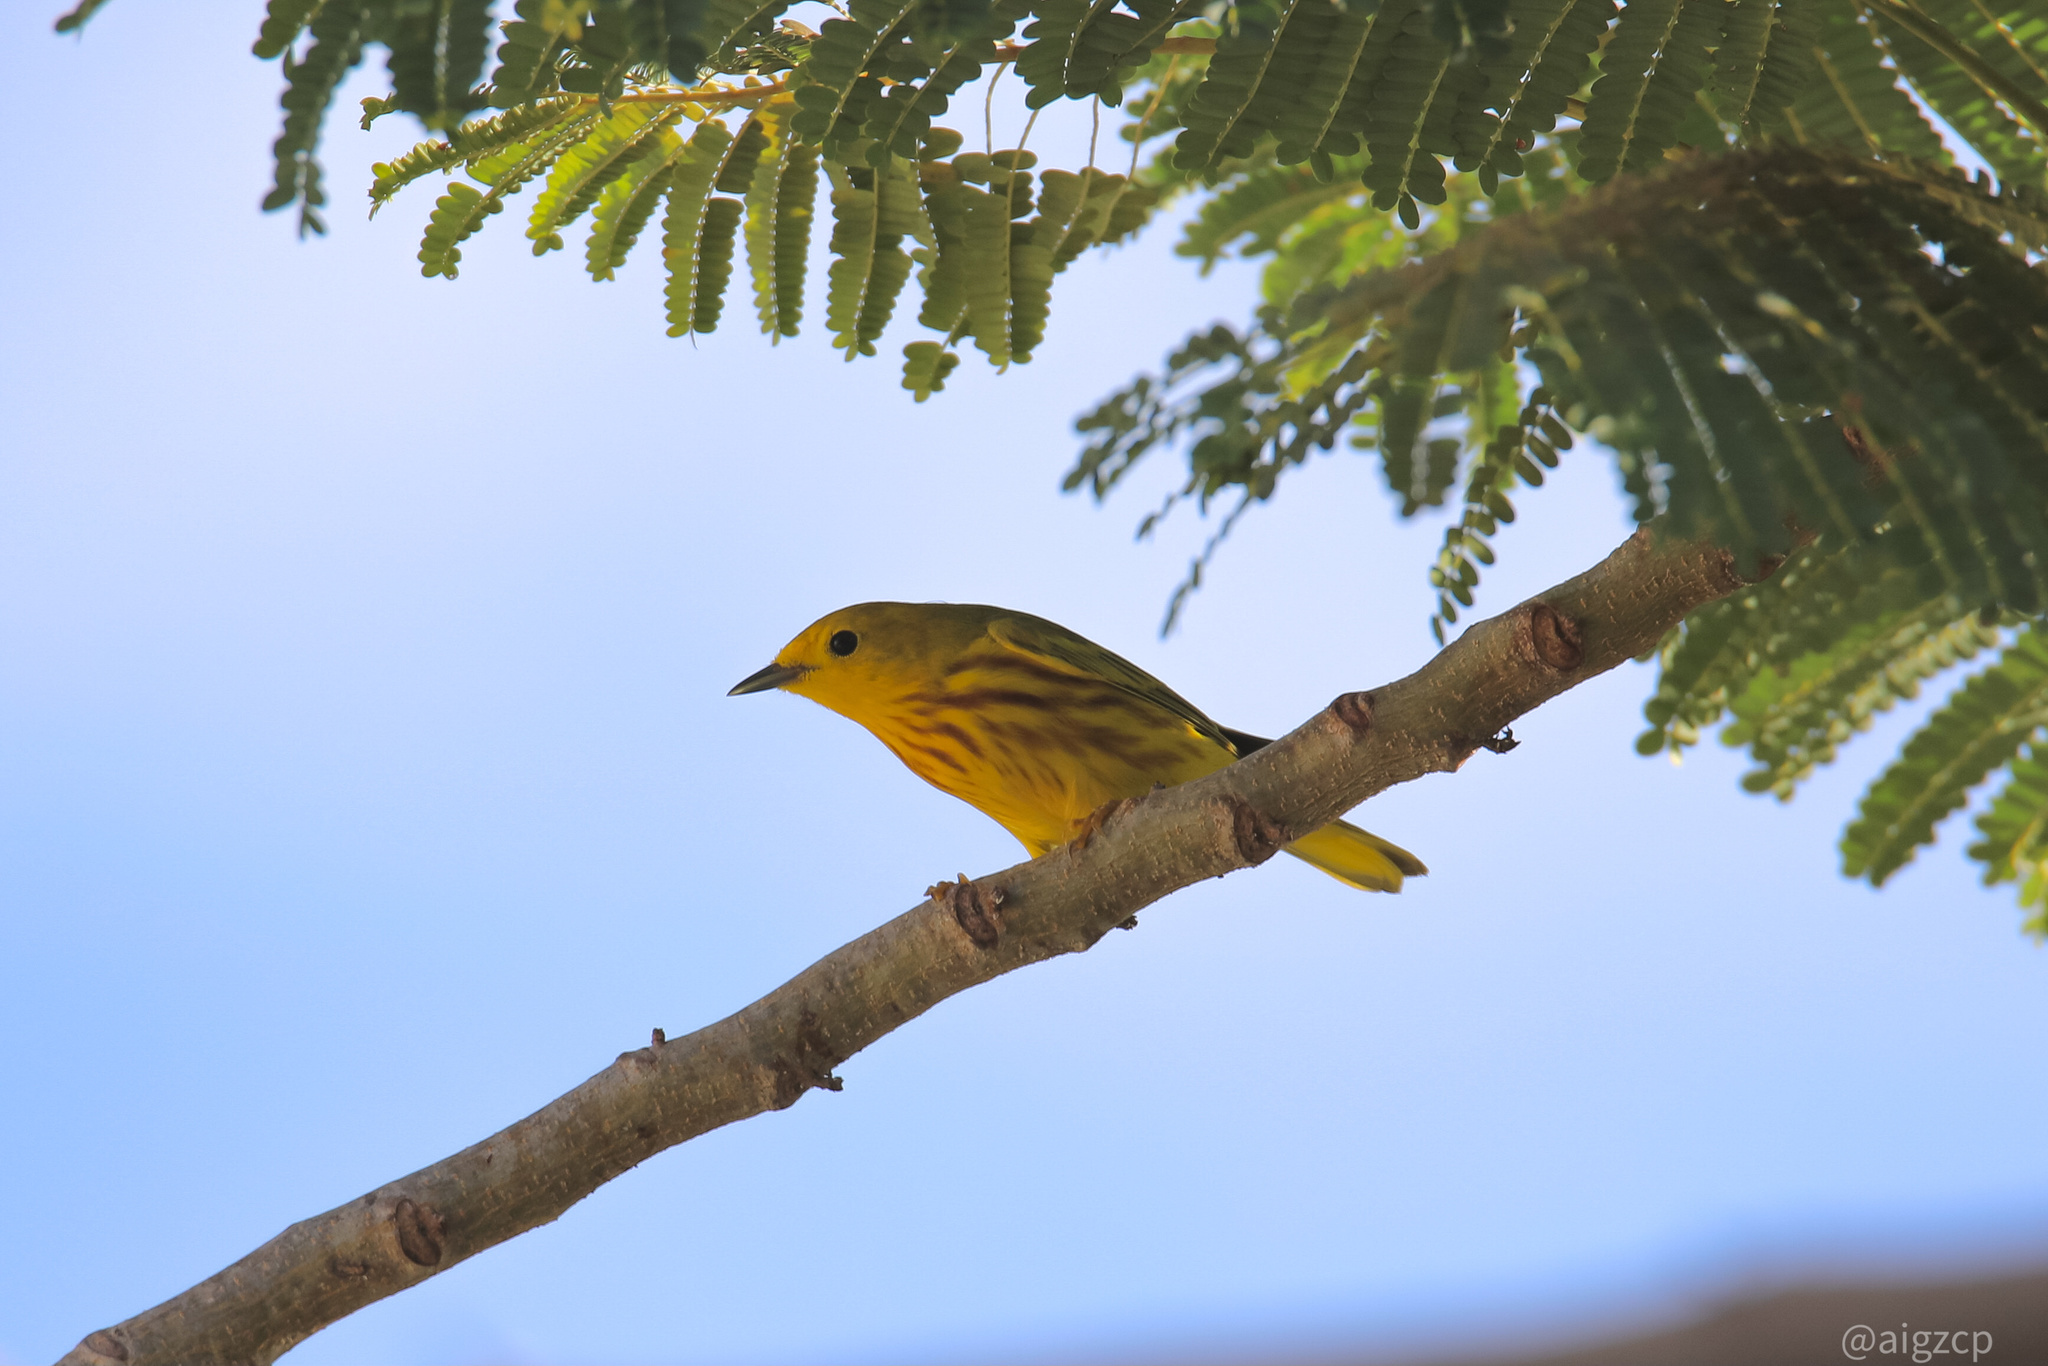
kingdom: Animalia
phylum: Chordata
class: Aves
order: Passeriformes
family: Parulidae
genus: Setophaga
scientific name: Setophaga petechia
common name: Yellow warbler
